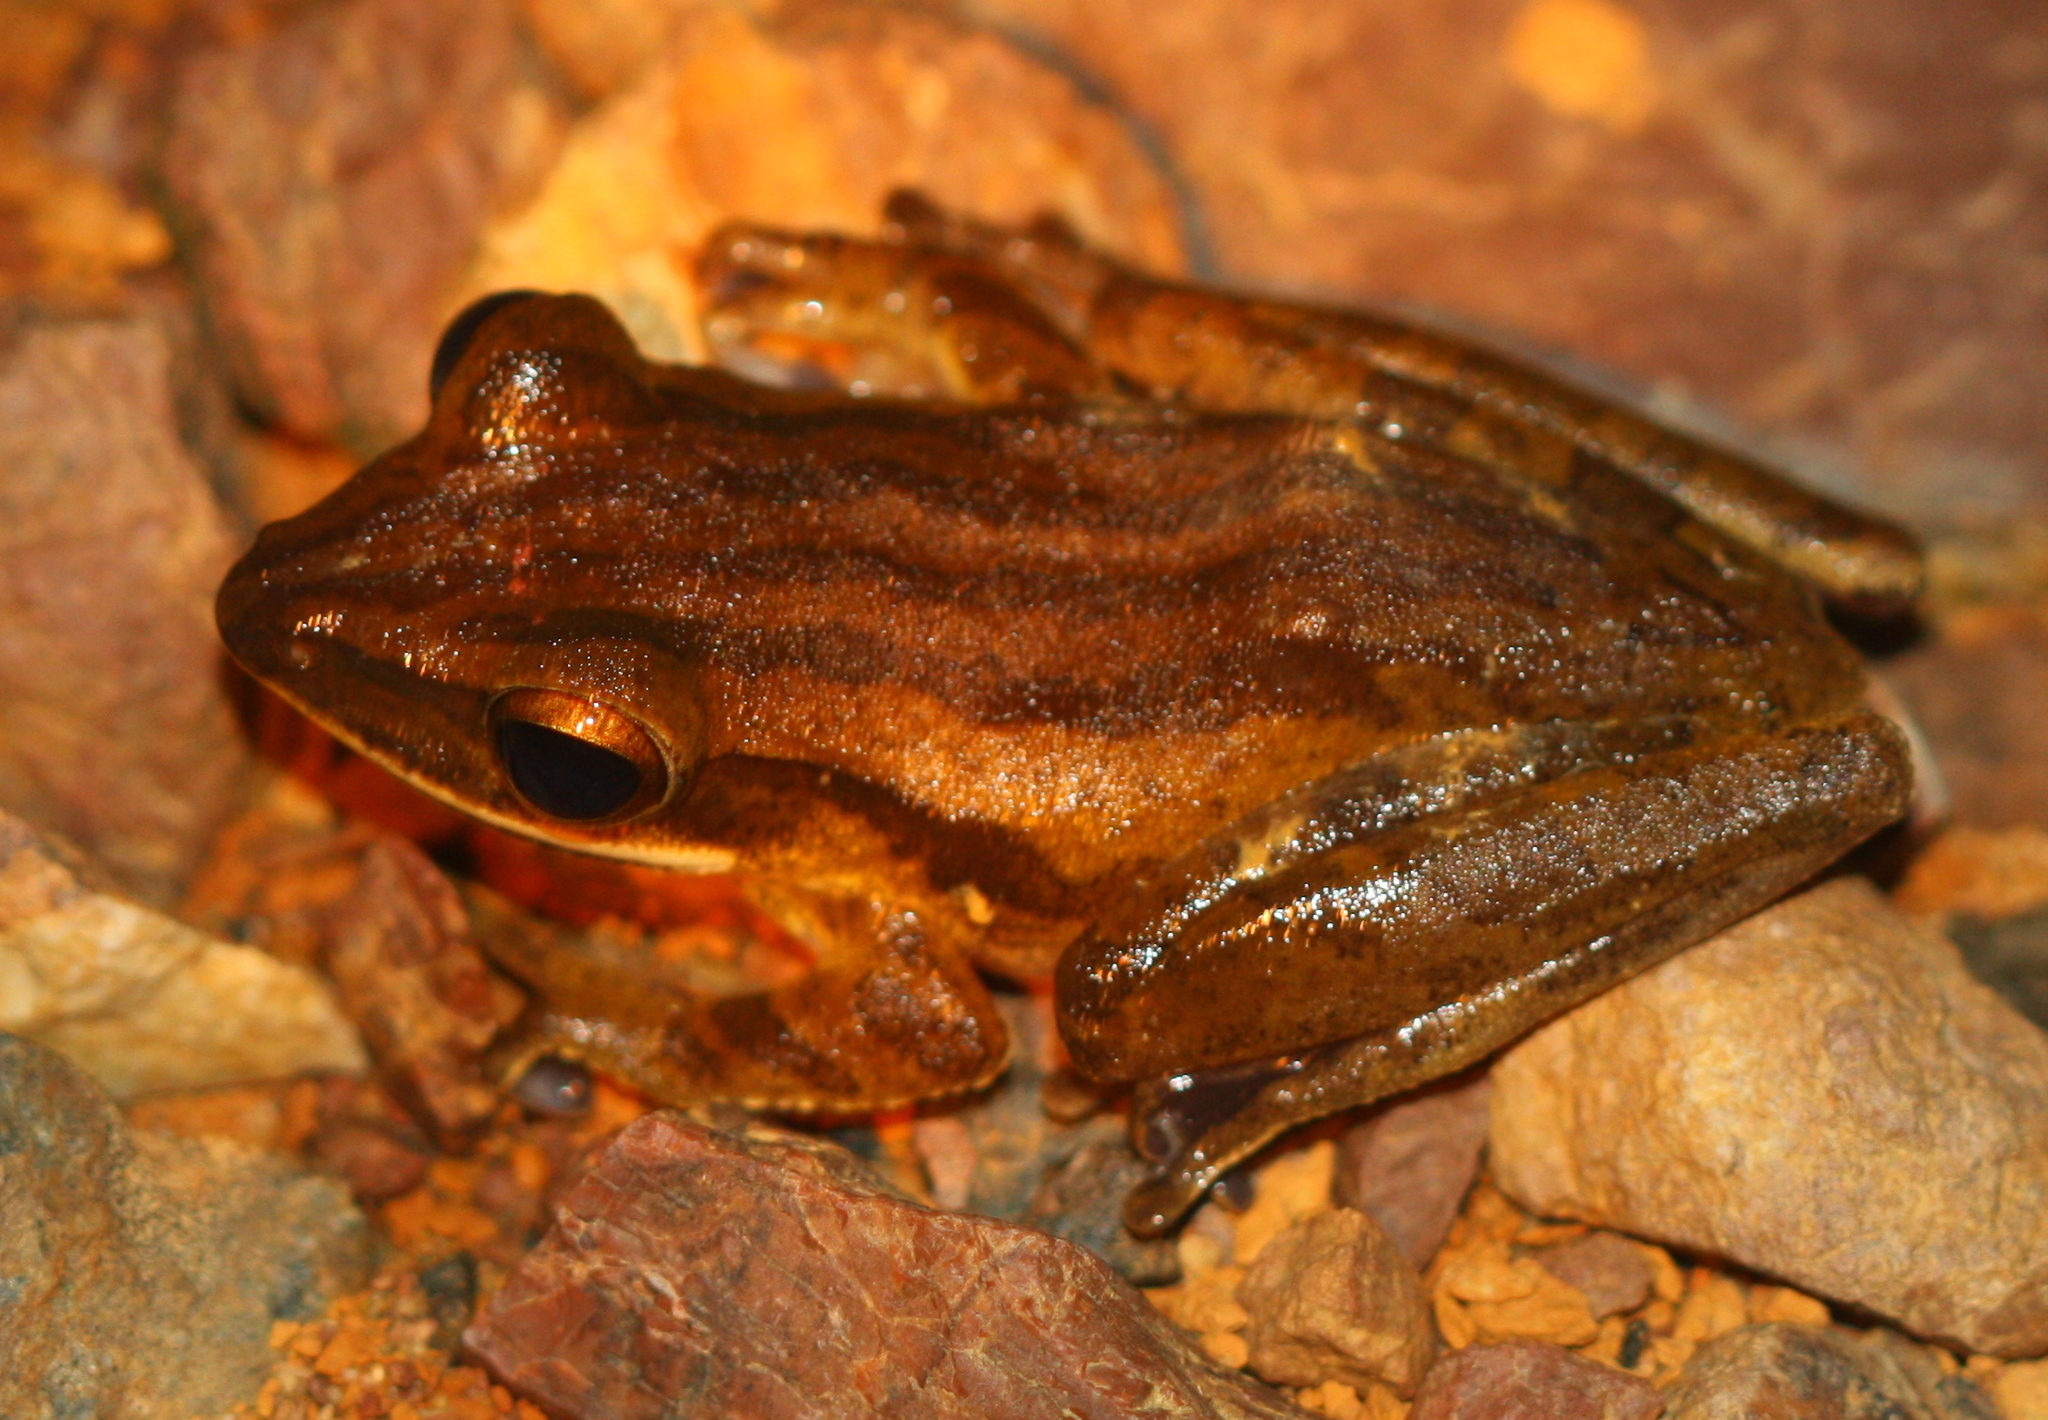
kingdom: Animalia
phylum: Chordata
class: Amphibia
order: Anura
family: Rhacophoridae
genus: Polypedates
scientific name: Polypedates leucomystax
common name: Common tree frog/four-lined tree frog
